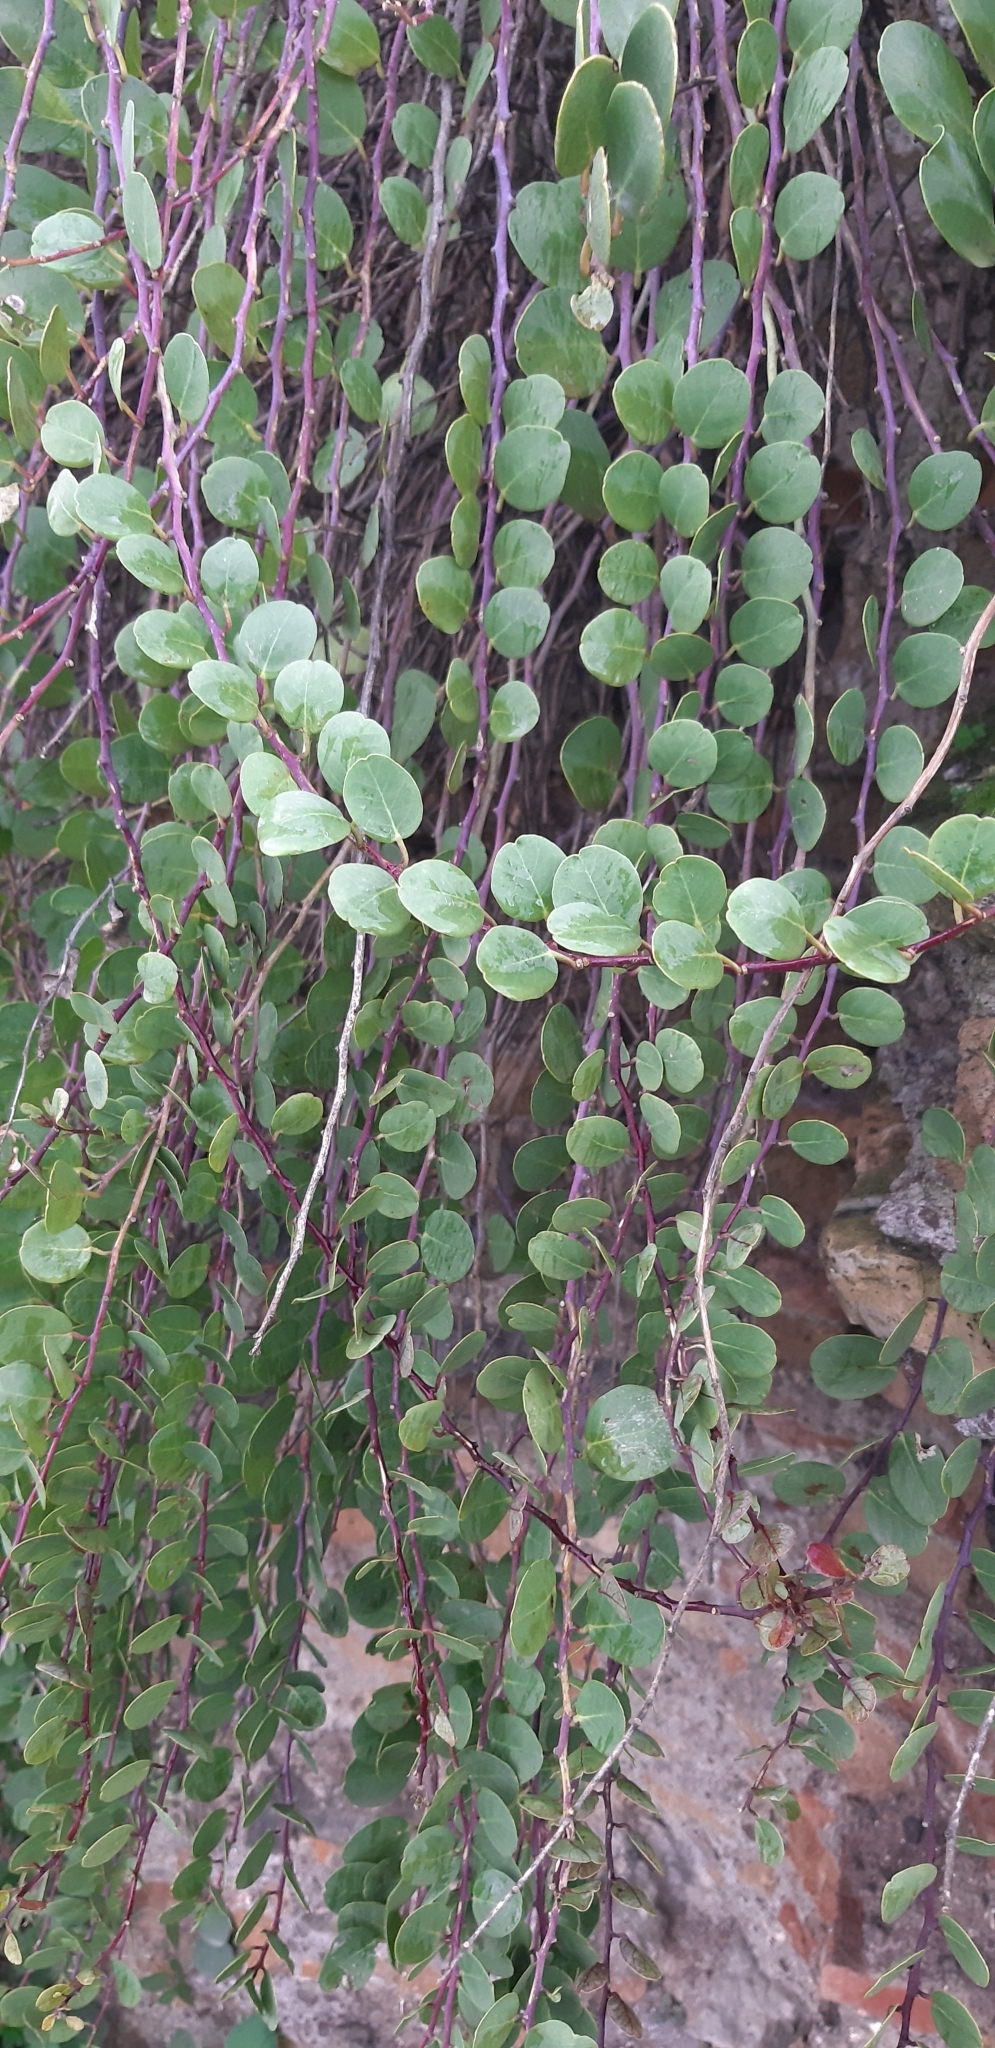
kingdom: Plantae
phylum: Tracheophyta
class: Magnoliopsida
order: Brassicales
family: Capparaceae
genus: Capparis
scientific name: Capparis orientalis
